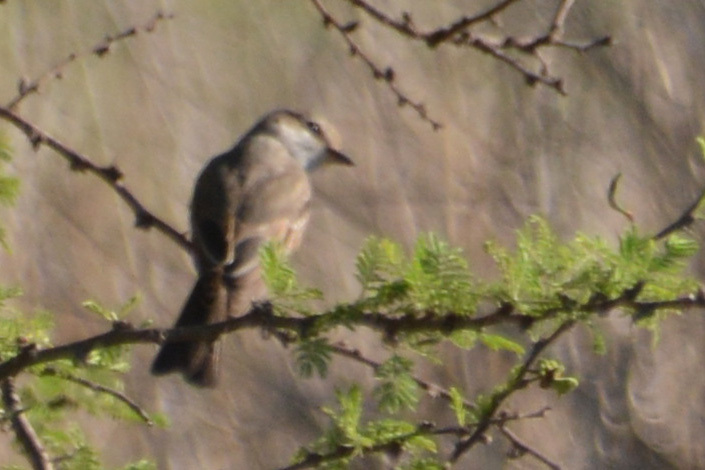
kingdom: Animalia
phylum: Chordata
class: Aves
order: Passeriformes
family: Tyrannidae
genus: Pyrocephalus
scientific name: Pyrocephalus rubinus
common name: Vermilion flycatcher
